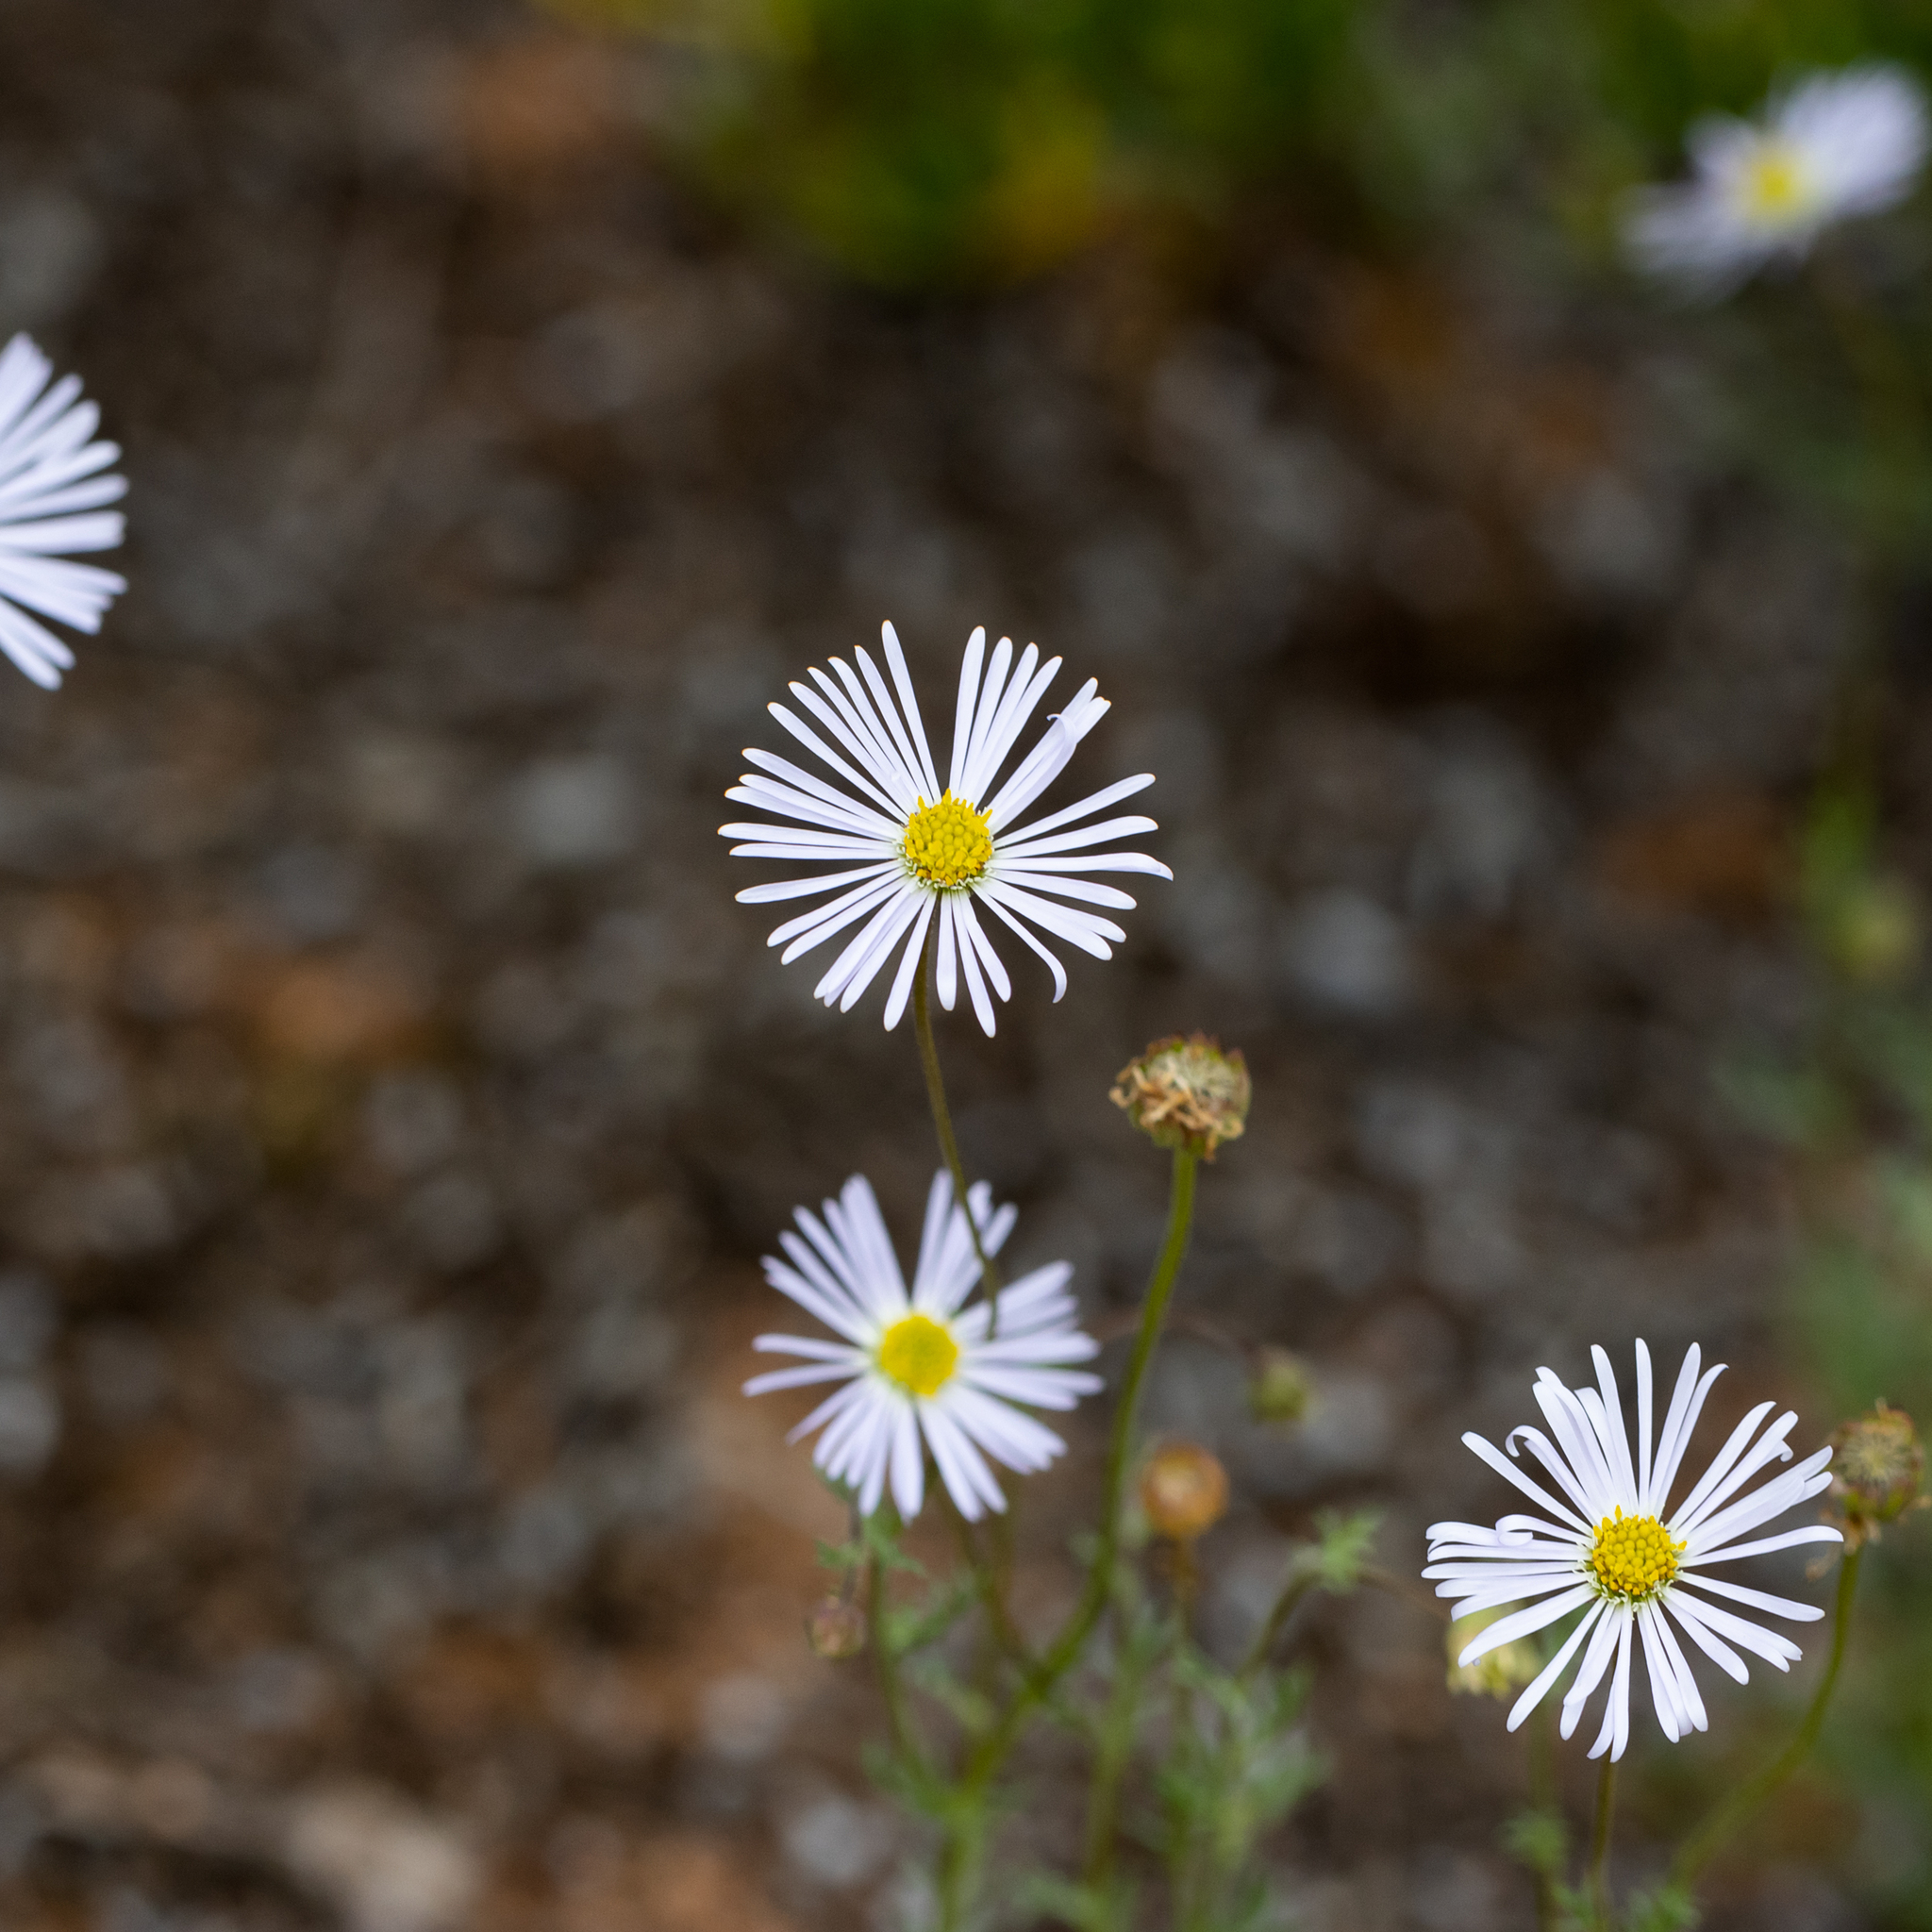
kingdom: Plantae
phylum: Tracheophyta
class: Magnoliopsida
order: Asterales
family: Asteraceae
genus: Brachyscome
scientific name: Brachyscome ciliaris
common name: Variable daisy
